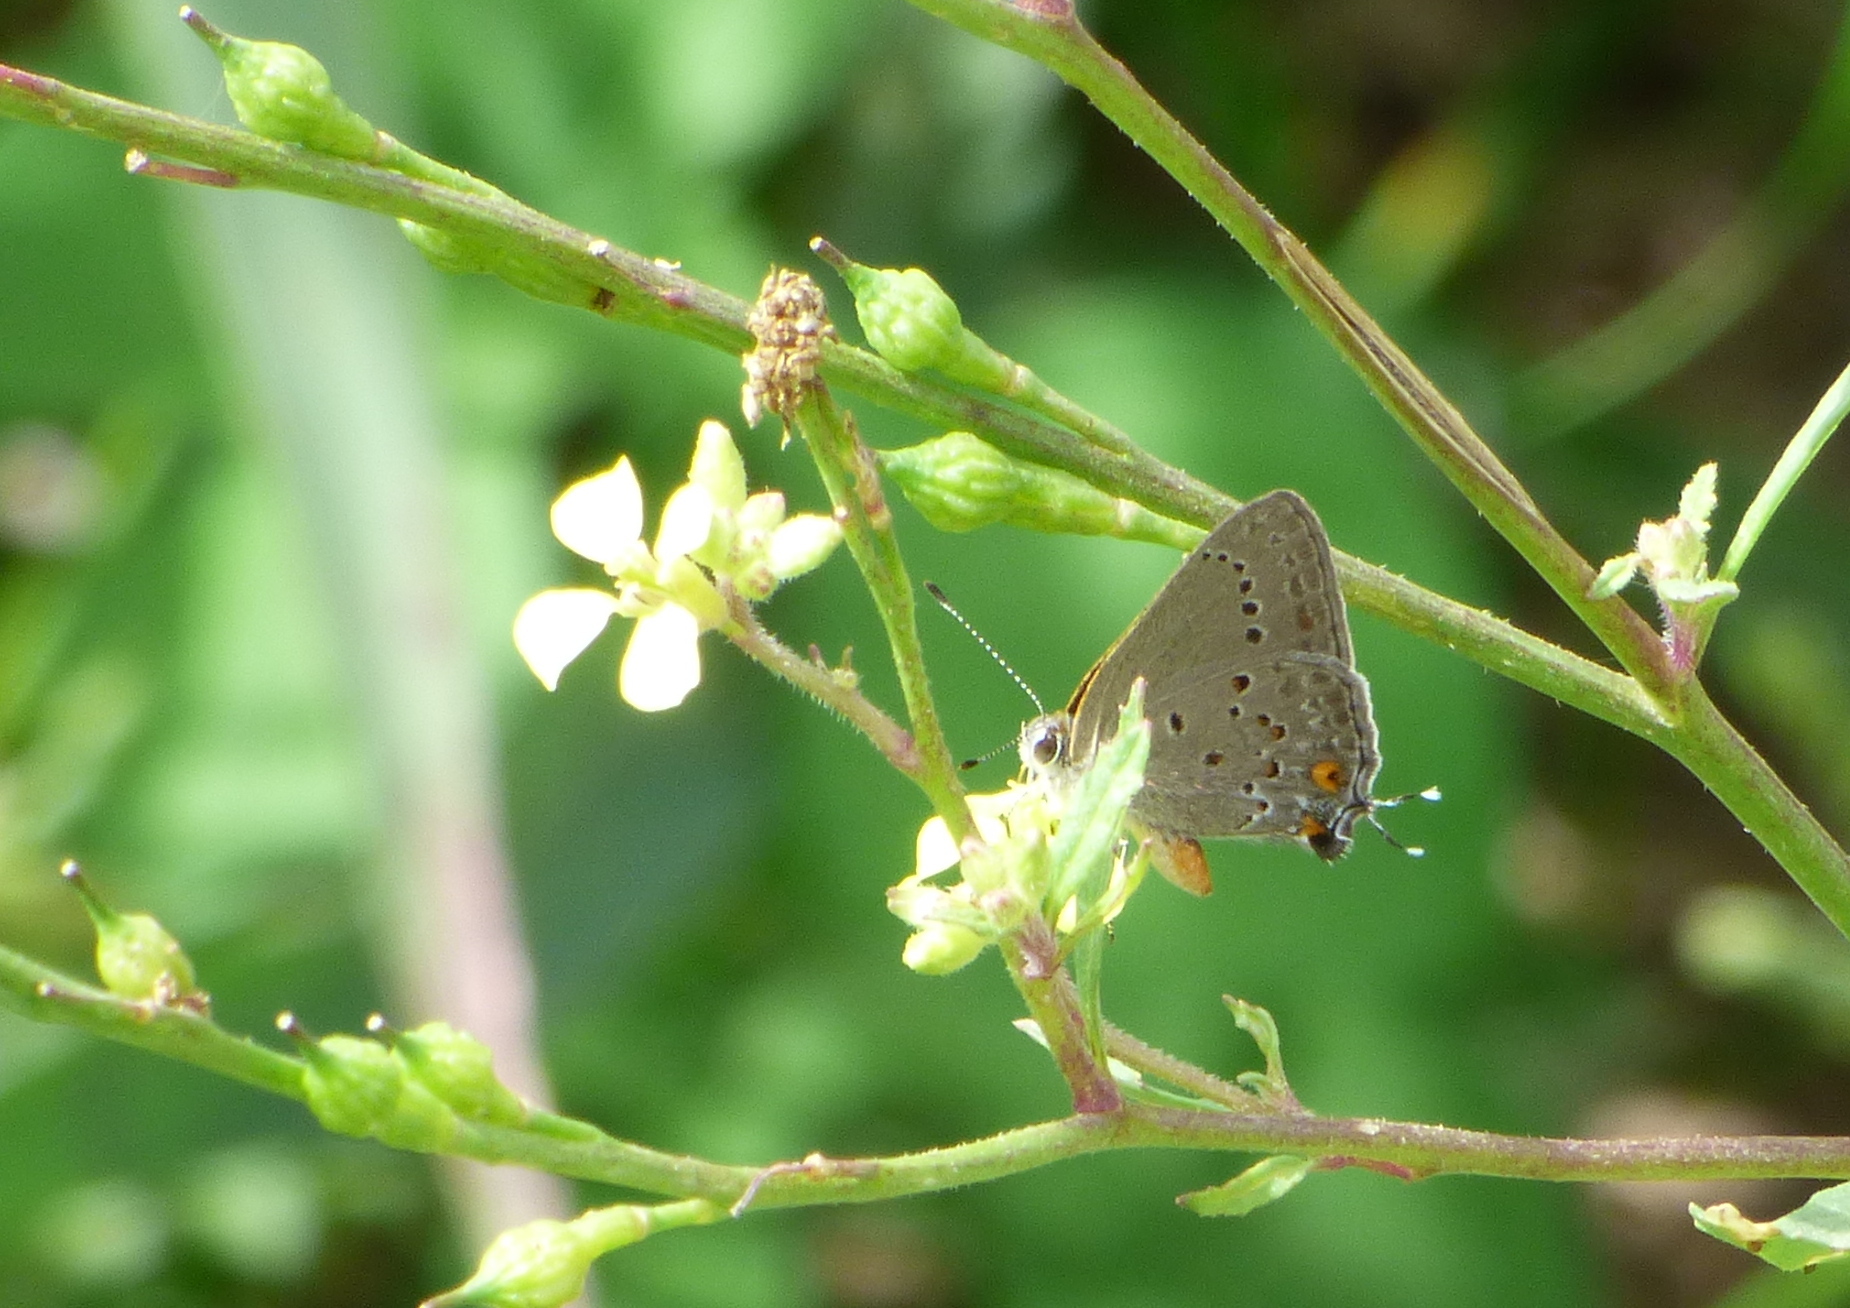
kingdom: Animalia
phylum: Arthropoda
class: Insecta
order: Lepidoptera
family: Lycaenidae
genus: Strymon
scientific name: Strymon eurytulus
